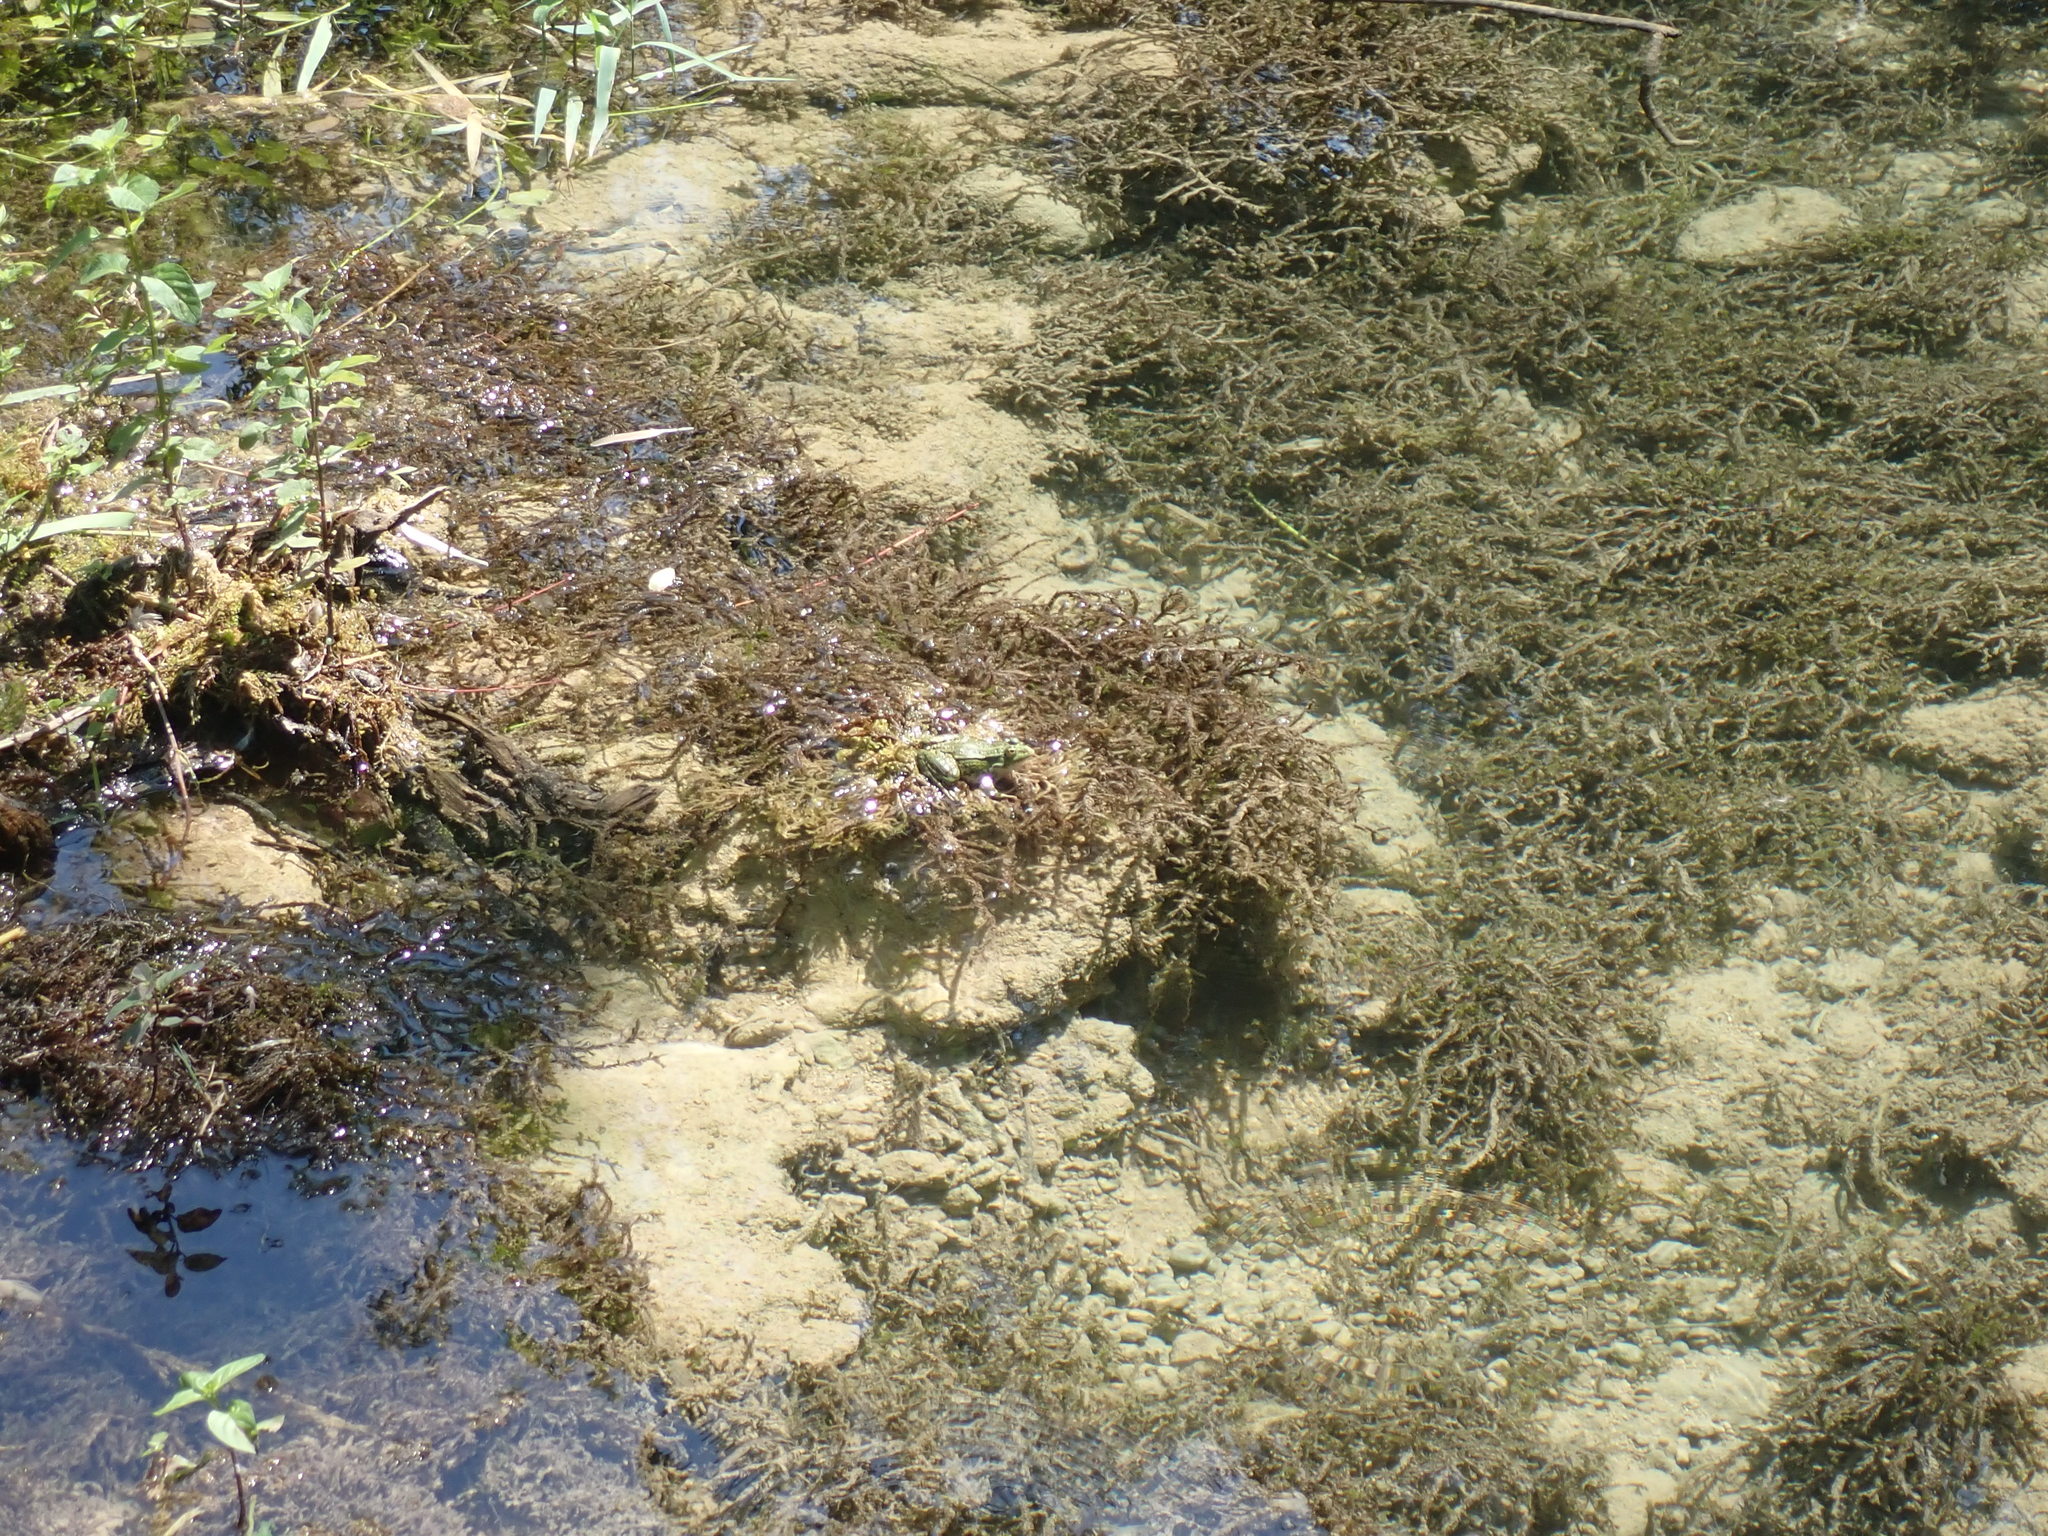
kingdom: Animalia
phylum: Chordata
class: Amphibia
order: Anura
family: Ranidae
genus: Pelophylax
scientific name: Pelophylax kurtmuelleri
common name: Balkan water frog
